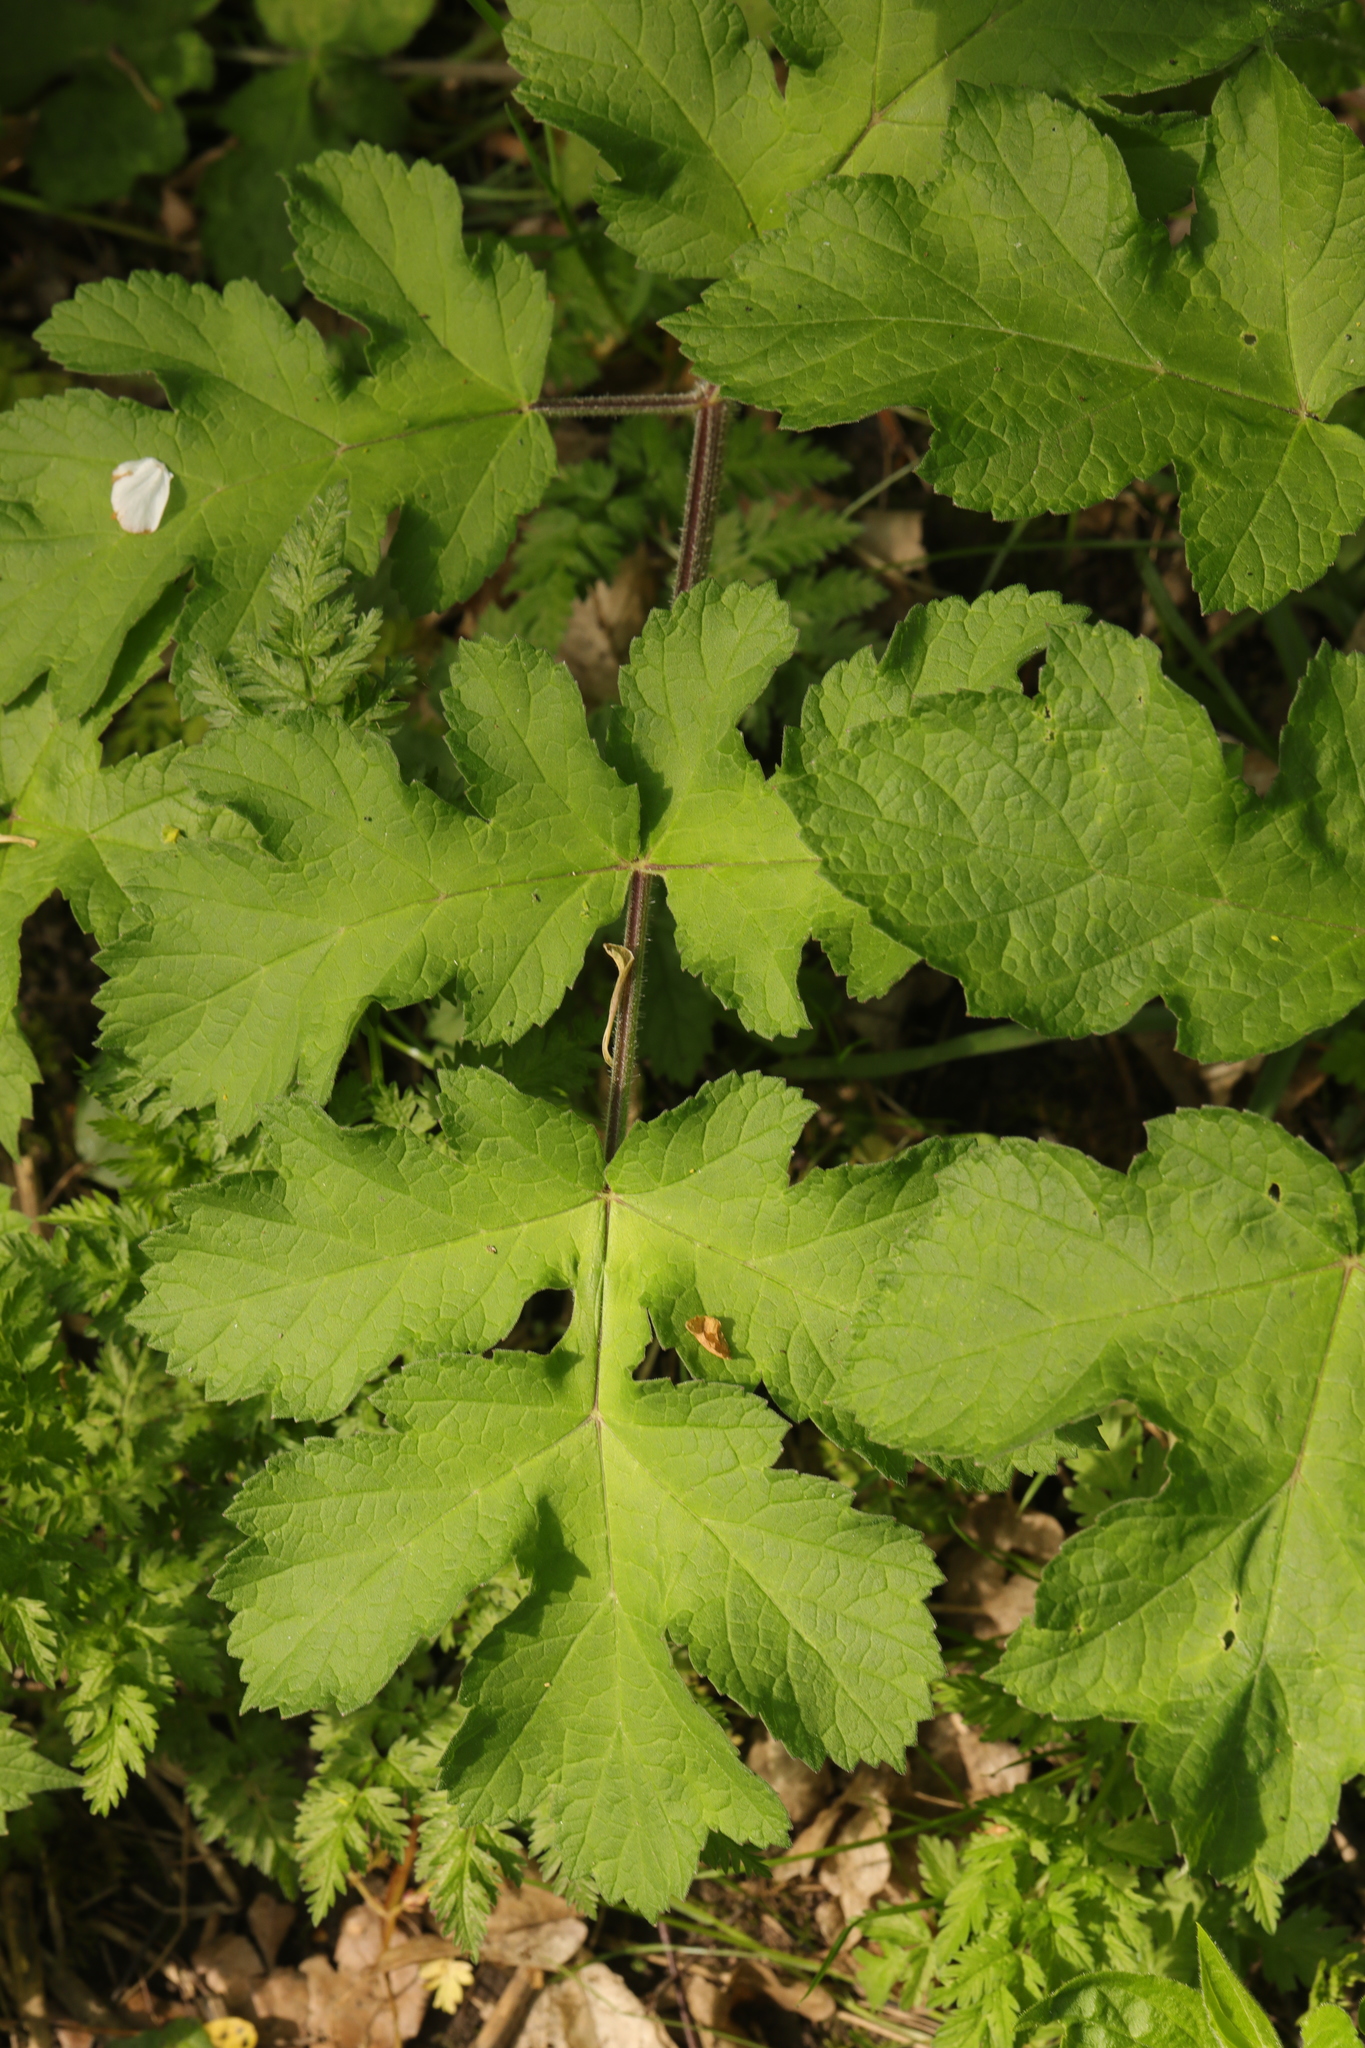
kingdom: Plantae
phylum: Tracheophyta
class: Magnoliopsida
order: Apiales
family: Apiaceae
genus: Heracleum
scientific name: Heracleum sphondylium
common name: Hogweed
